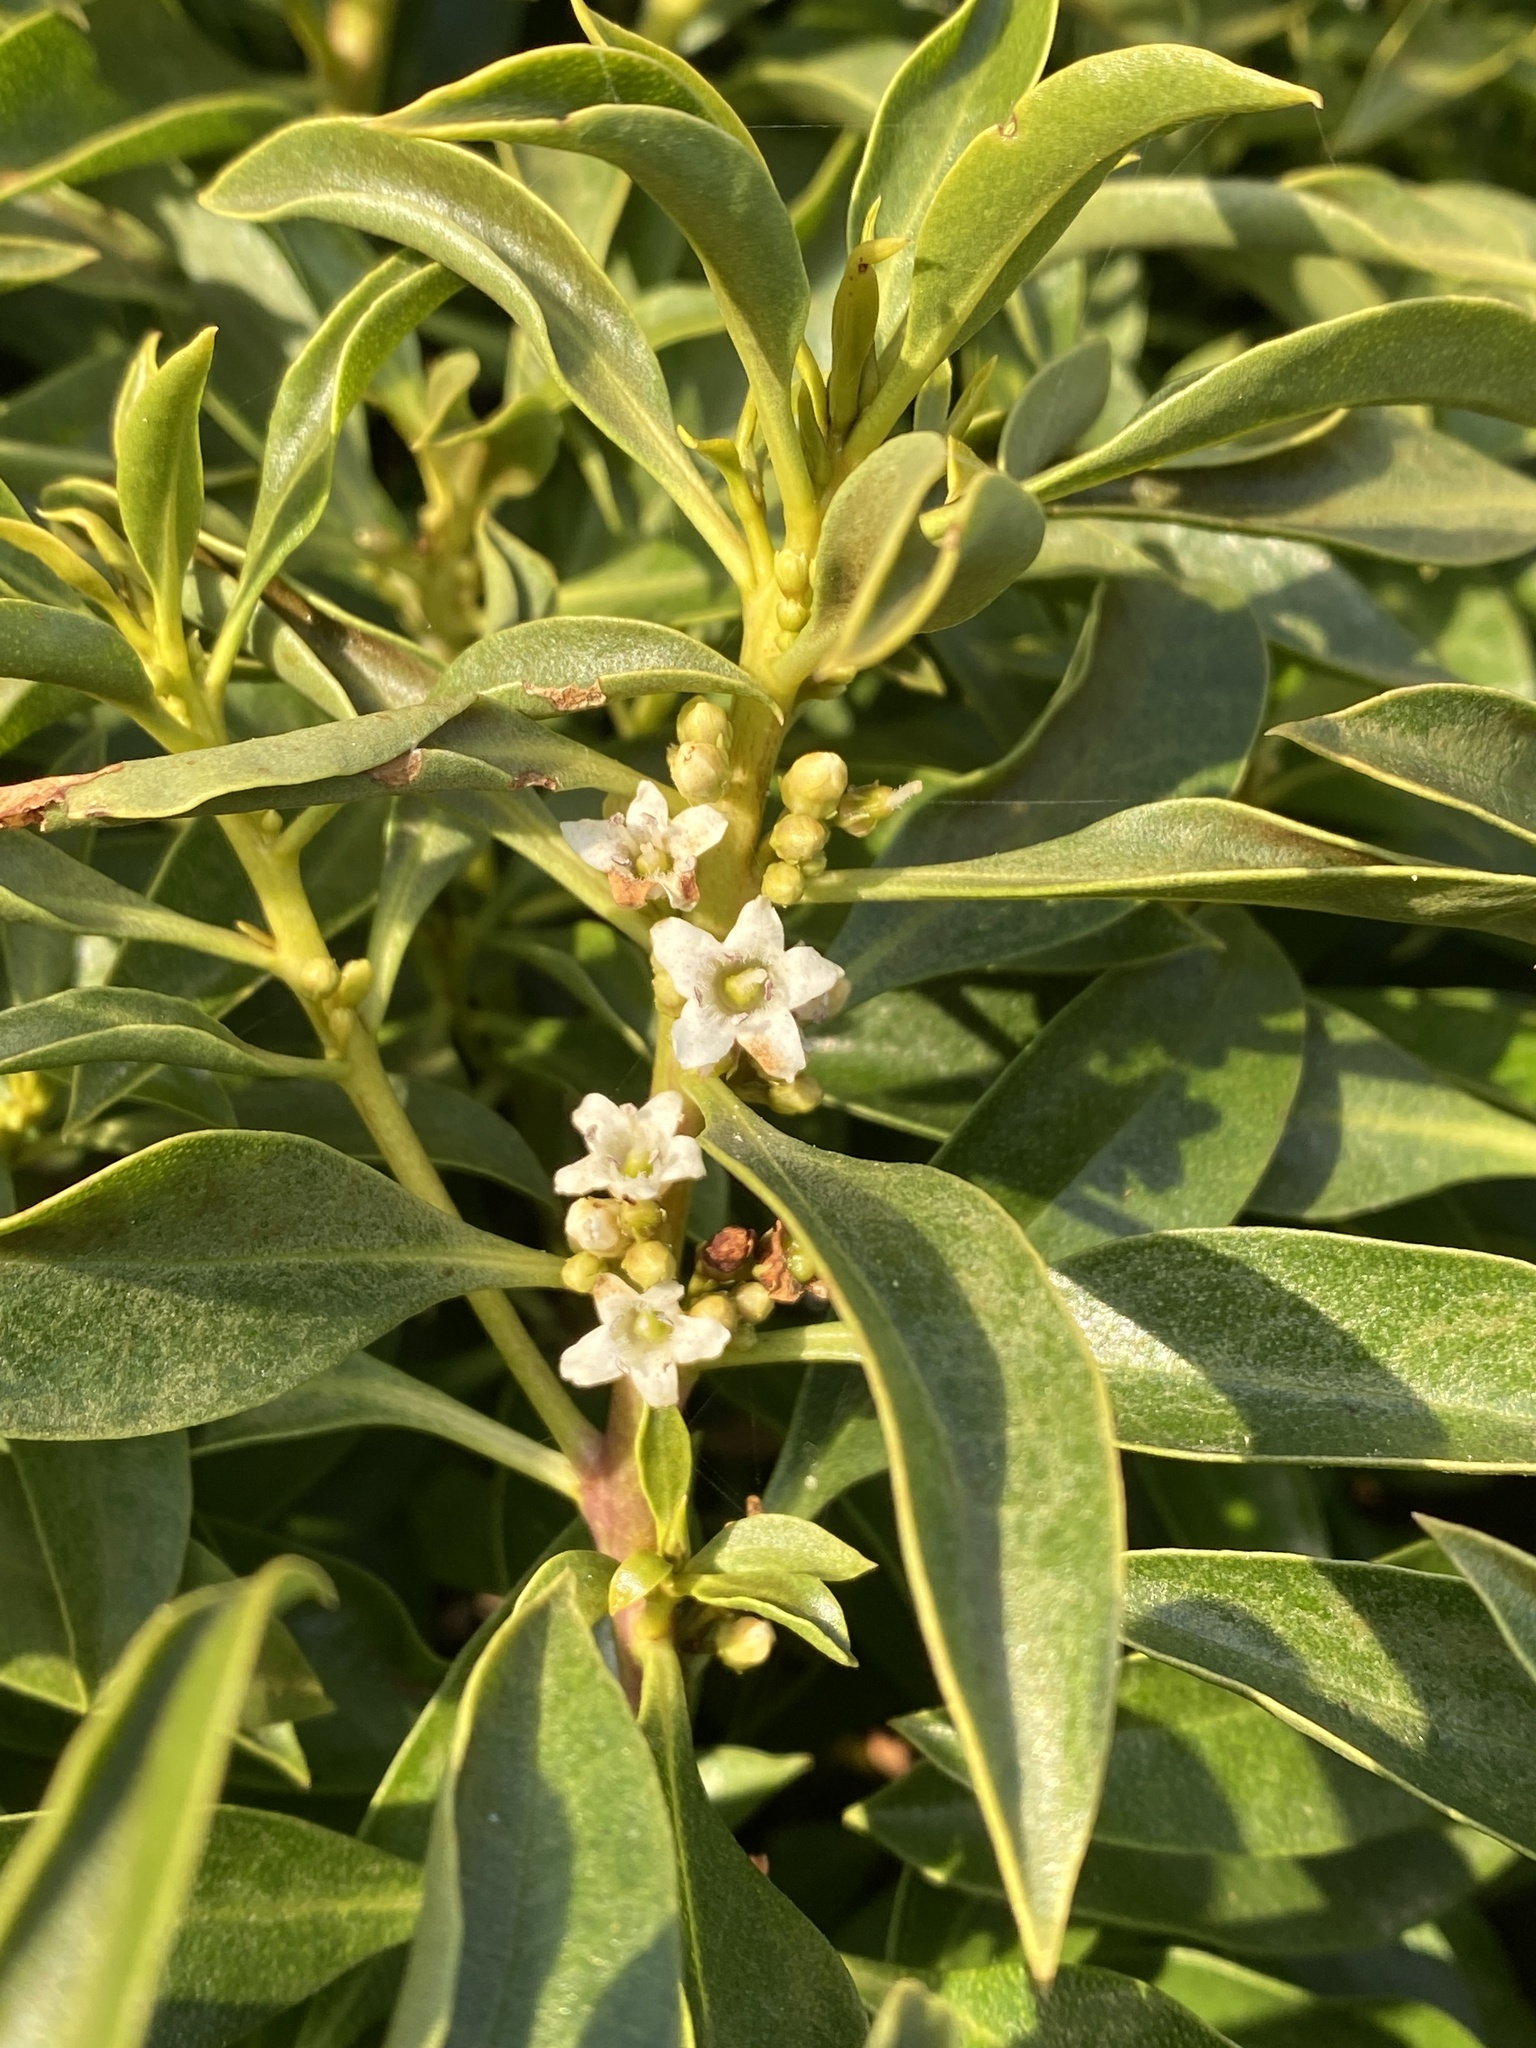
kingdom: Plantae
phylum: Tracheophyta
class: Magnoliopsida
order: Lamiales
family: Scrophulariaceae
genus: Myoporum
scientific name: Myoporum laetum
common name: Ngaio tree
